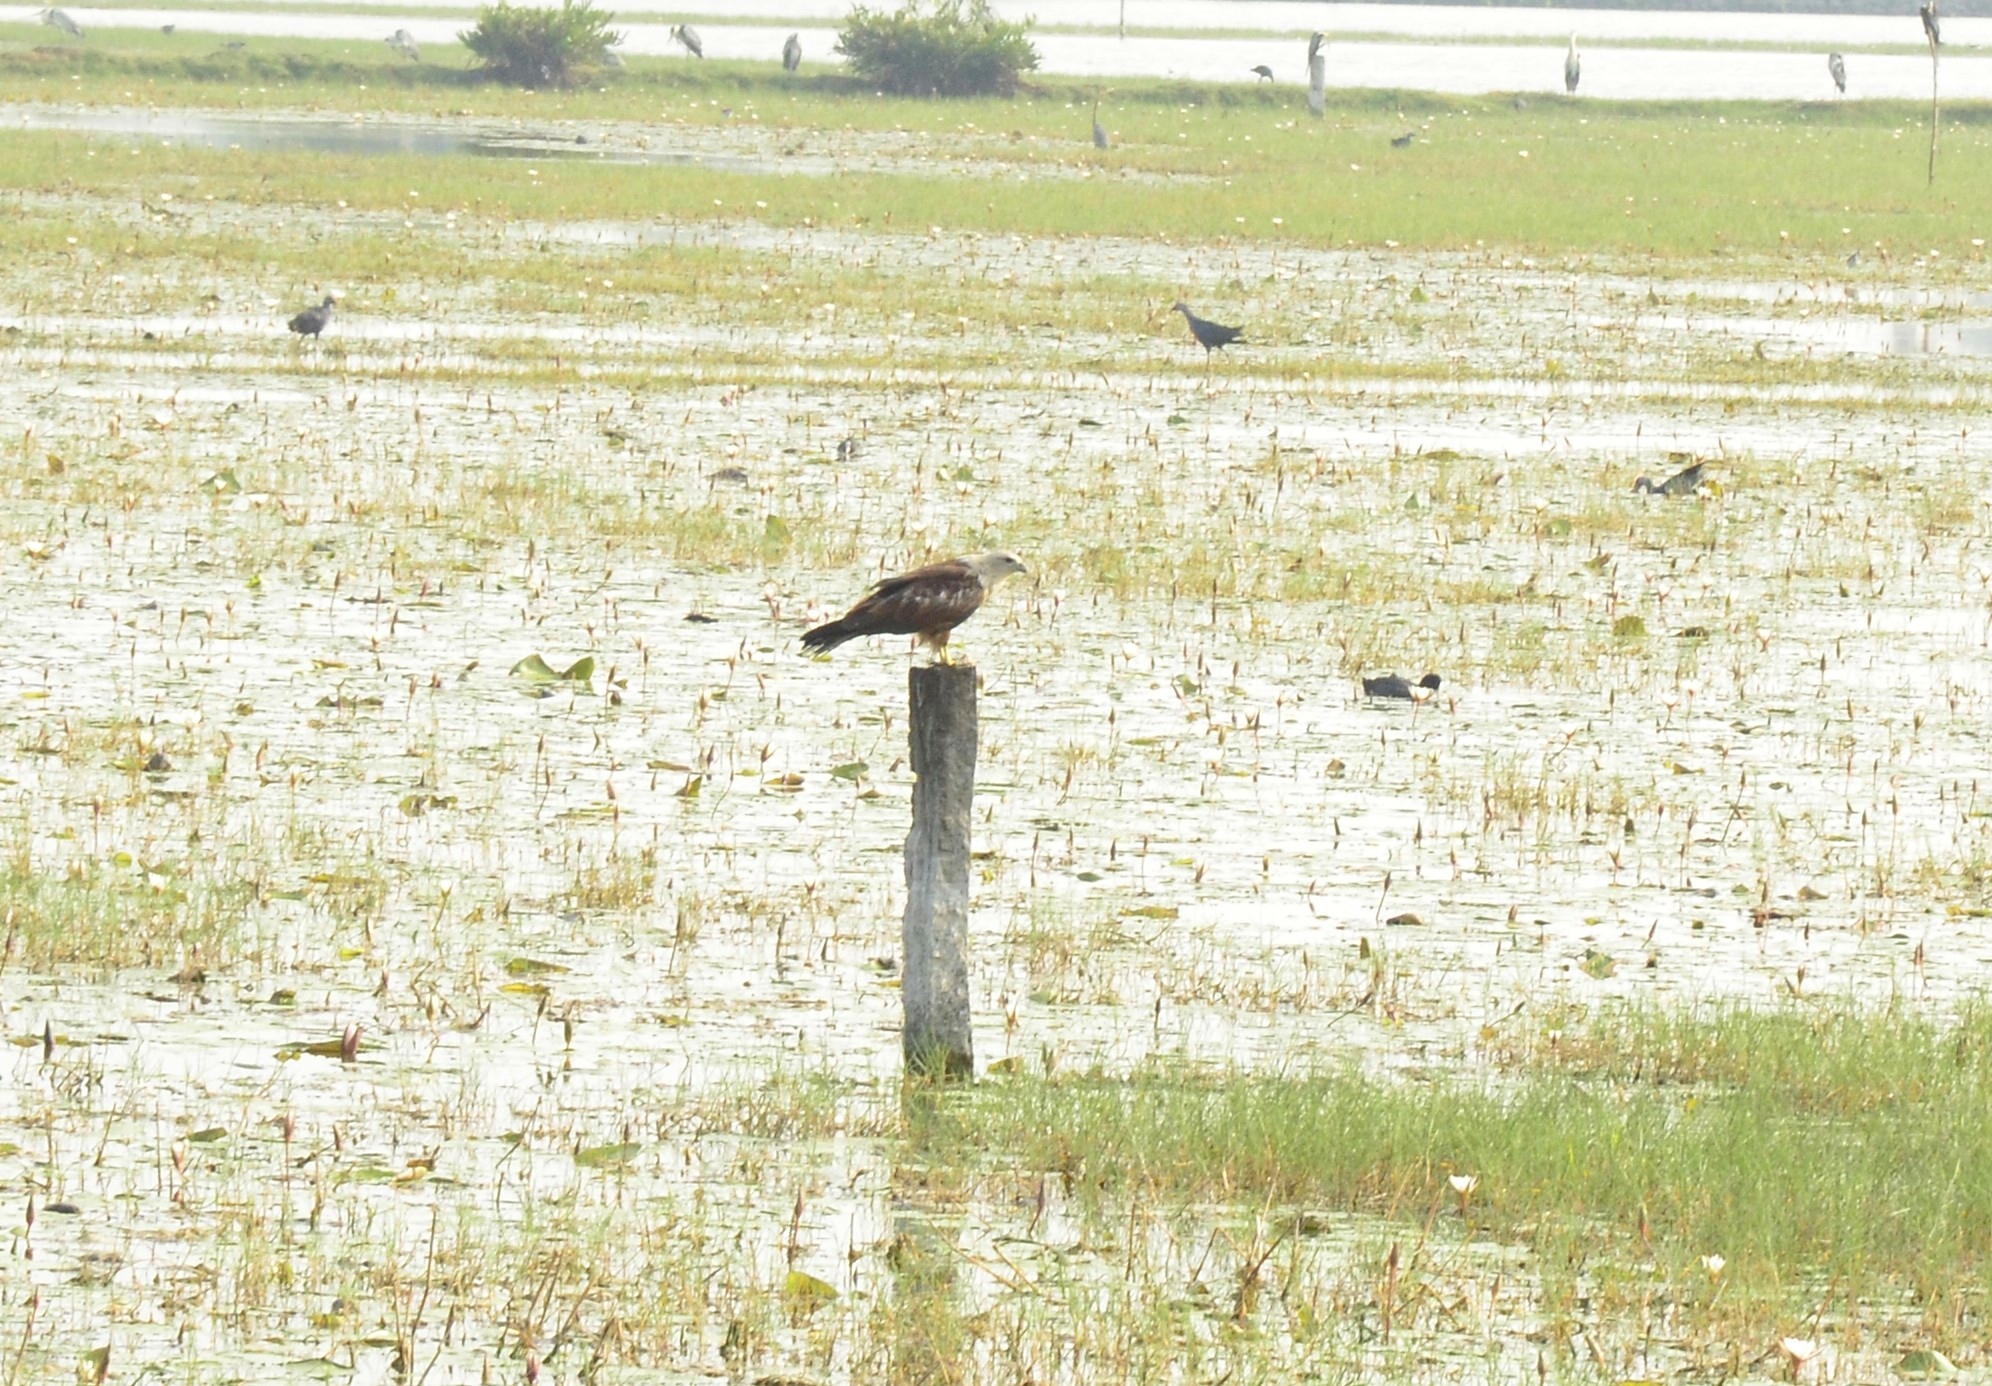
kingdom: Animalia
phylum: Chordata
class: Aves
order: Accipitriformes
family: Accipitridae
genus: Haliastur
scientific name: Haliastur indus
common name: Brahminy kite
